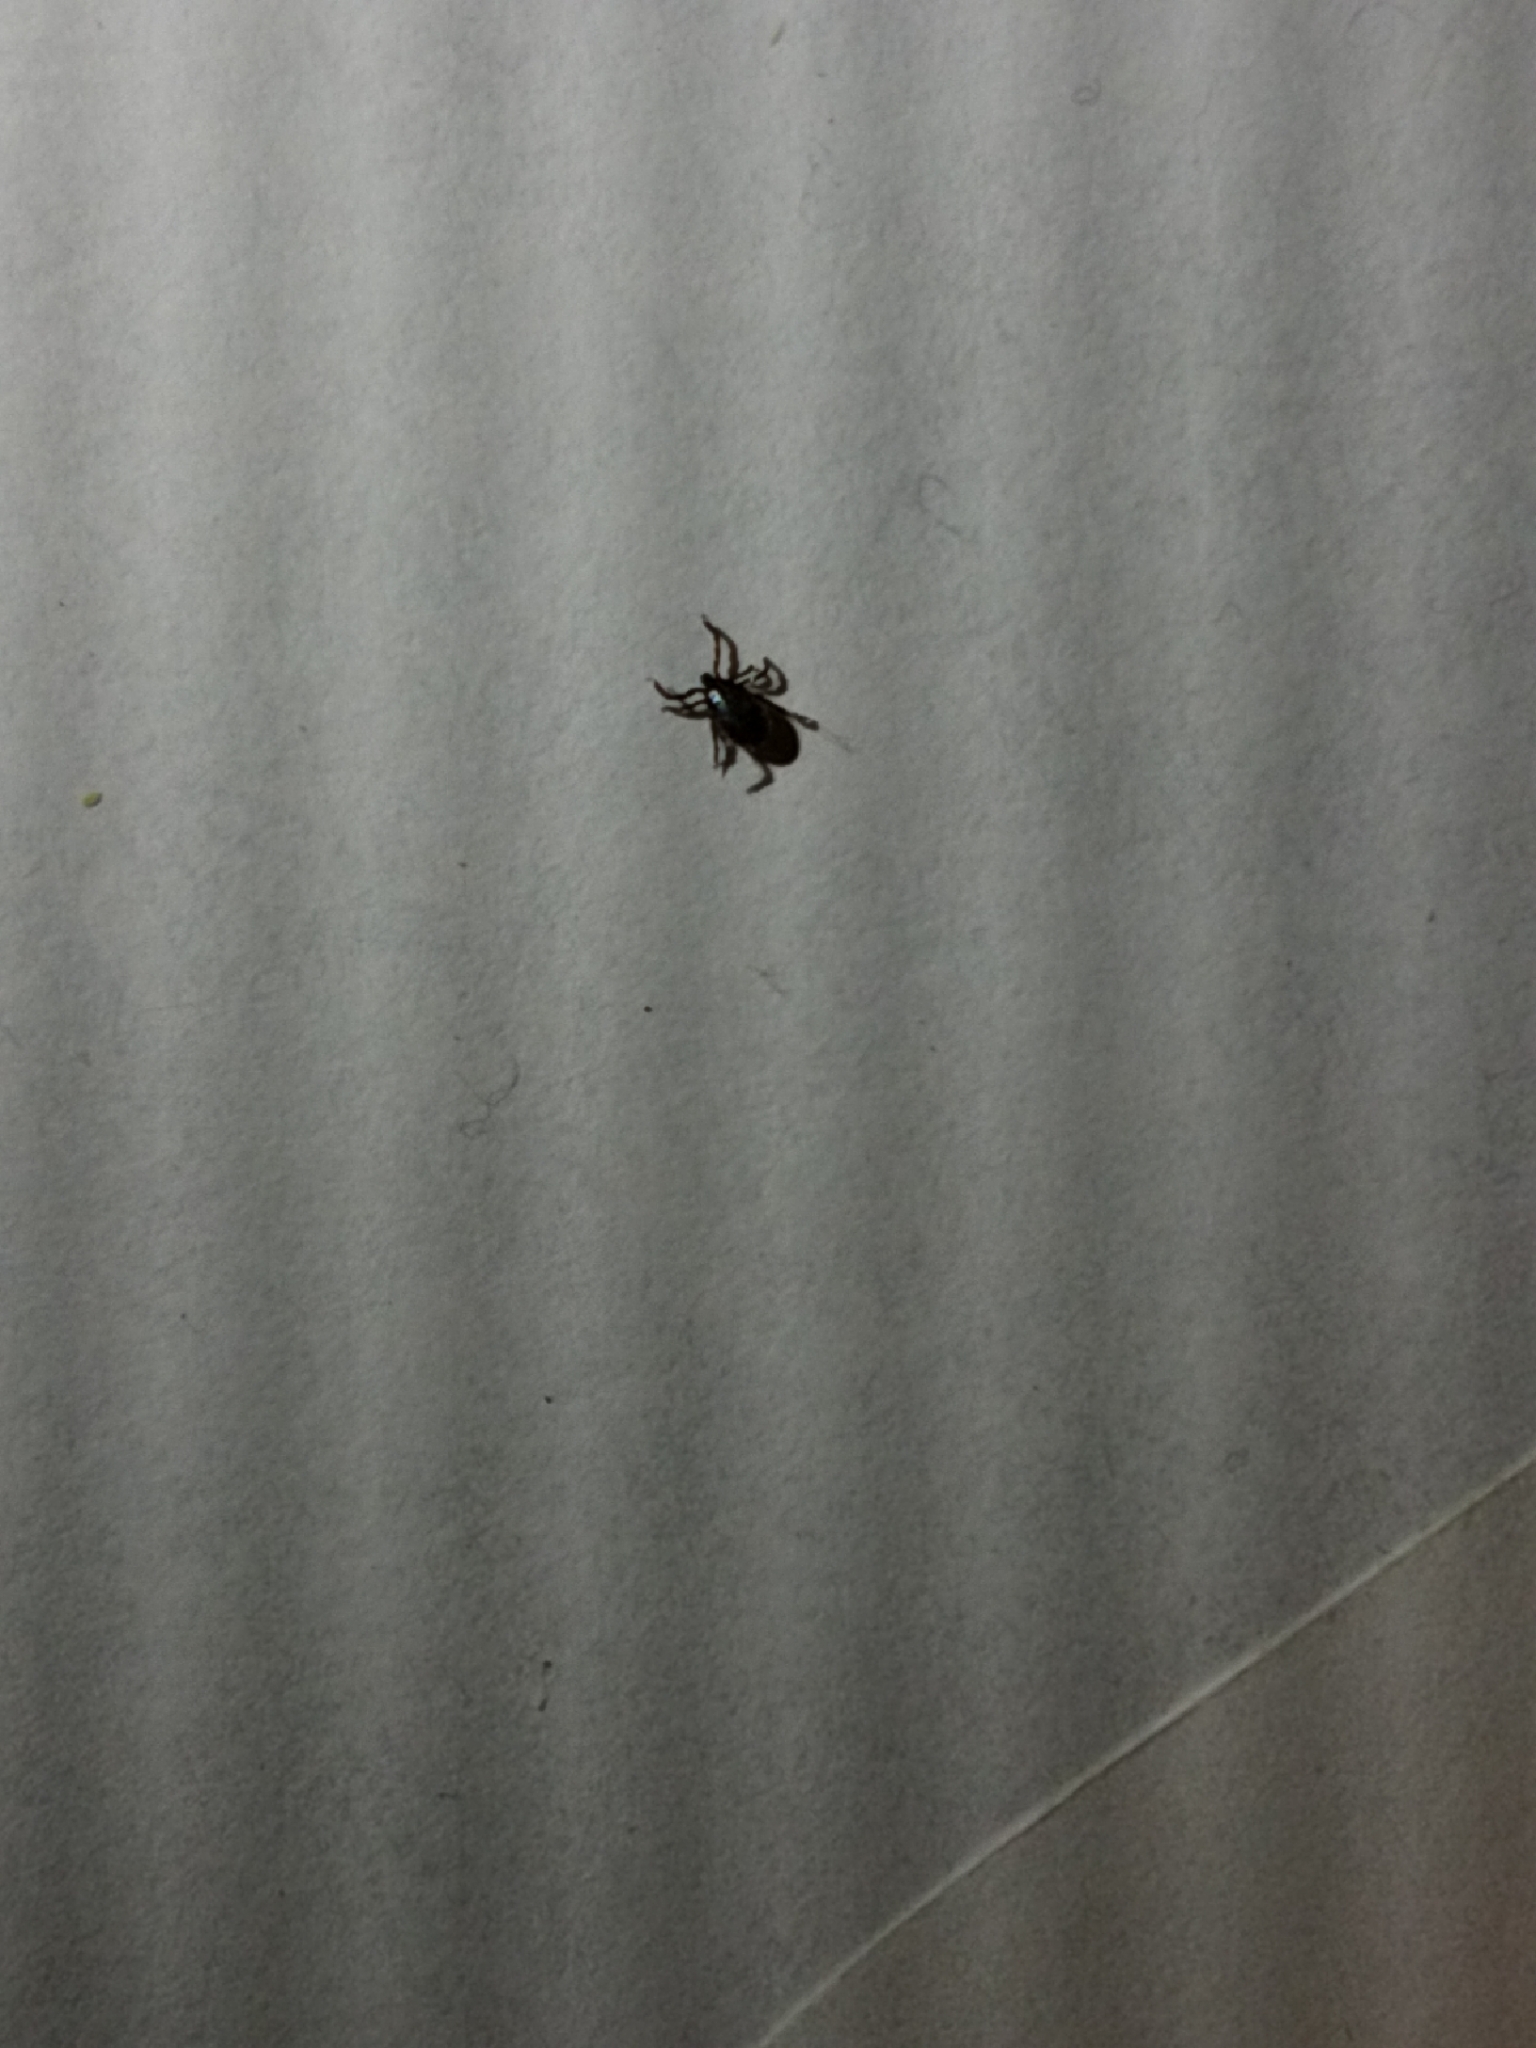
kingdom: Animalia
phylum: Arthropoda
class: Arachnida
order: Ixodida
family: Ixodidae
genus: Ixodes
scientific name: Ixodes scapularis
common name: Black legged tick
